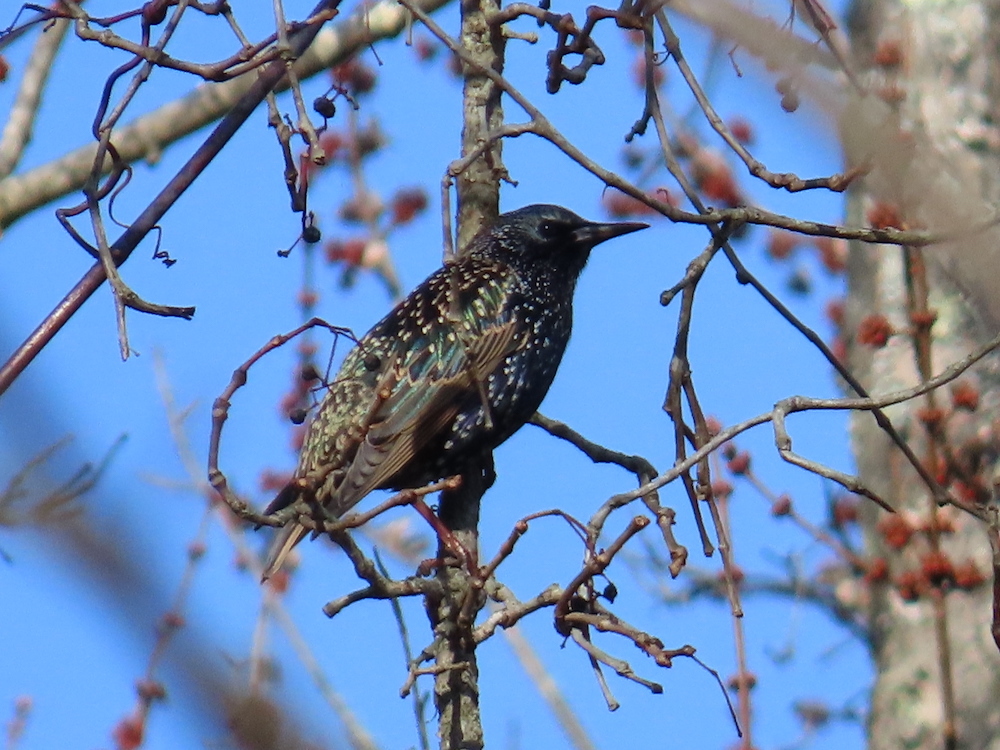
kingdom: Animalia
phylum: Chordata
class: Aves
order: Passeriformes
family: Sturnidae
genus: Sturnus
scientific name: Sturnus vulgaris
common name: Common starling
